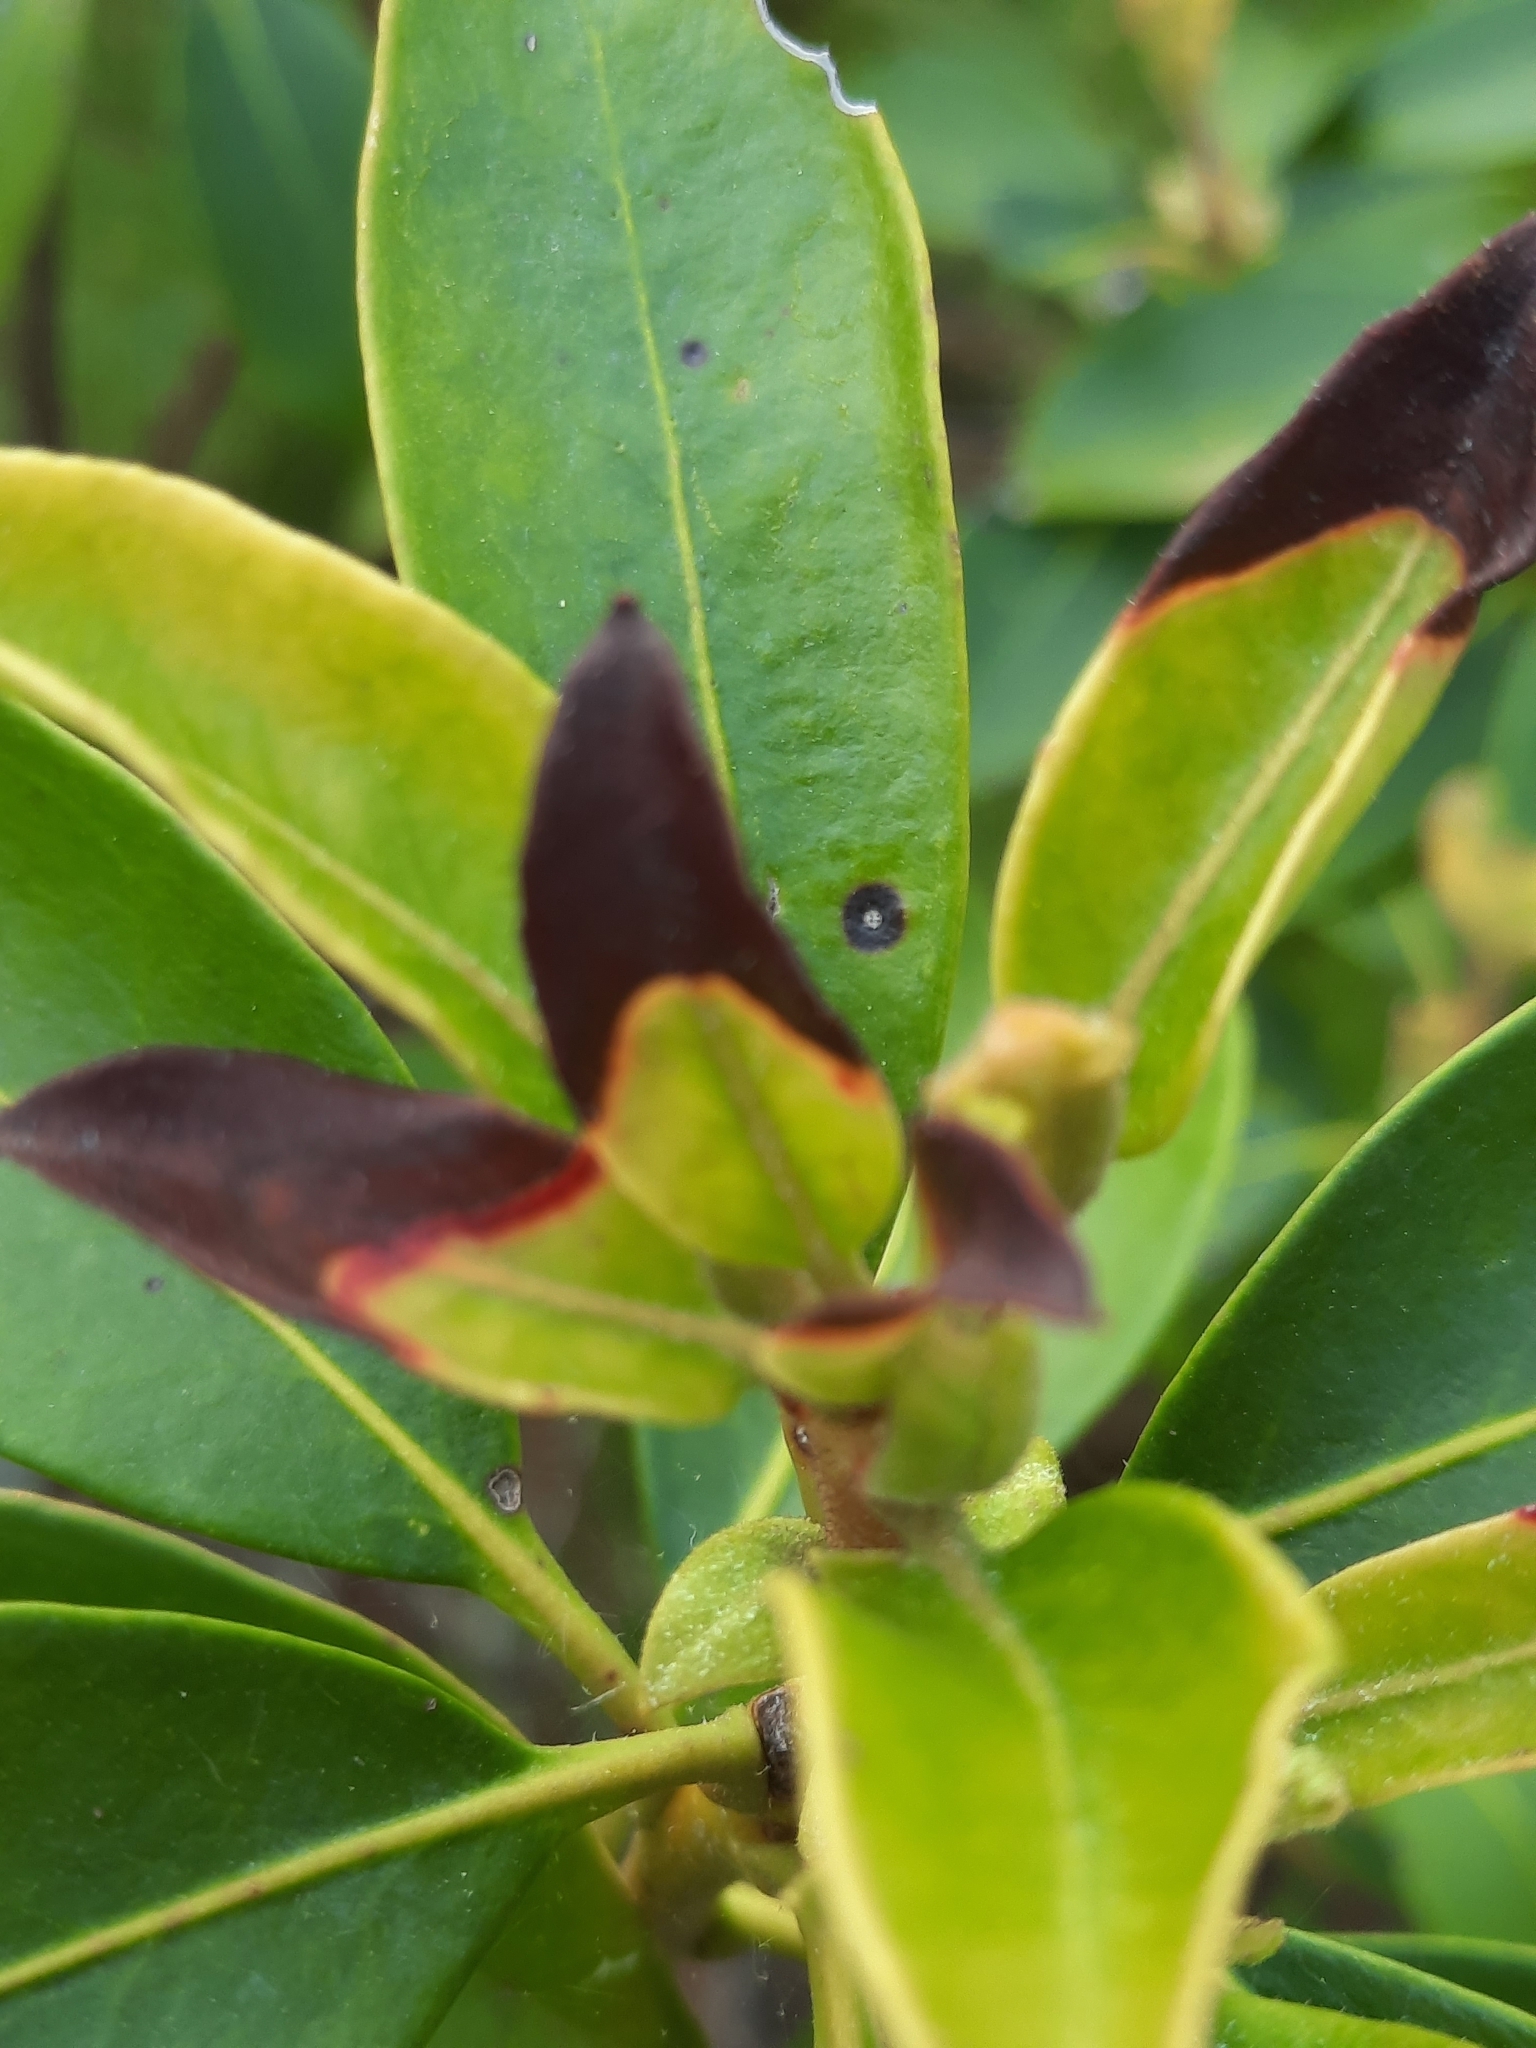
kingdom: Plantae
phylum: Tracheophyta
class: Magnoliopsida
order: Ericales
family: Ericaceae
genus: Kalmia
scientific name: Kalmia latifolia
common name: Mountain-laurel
